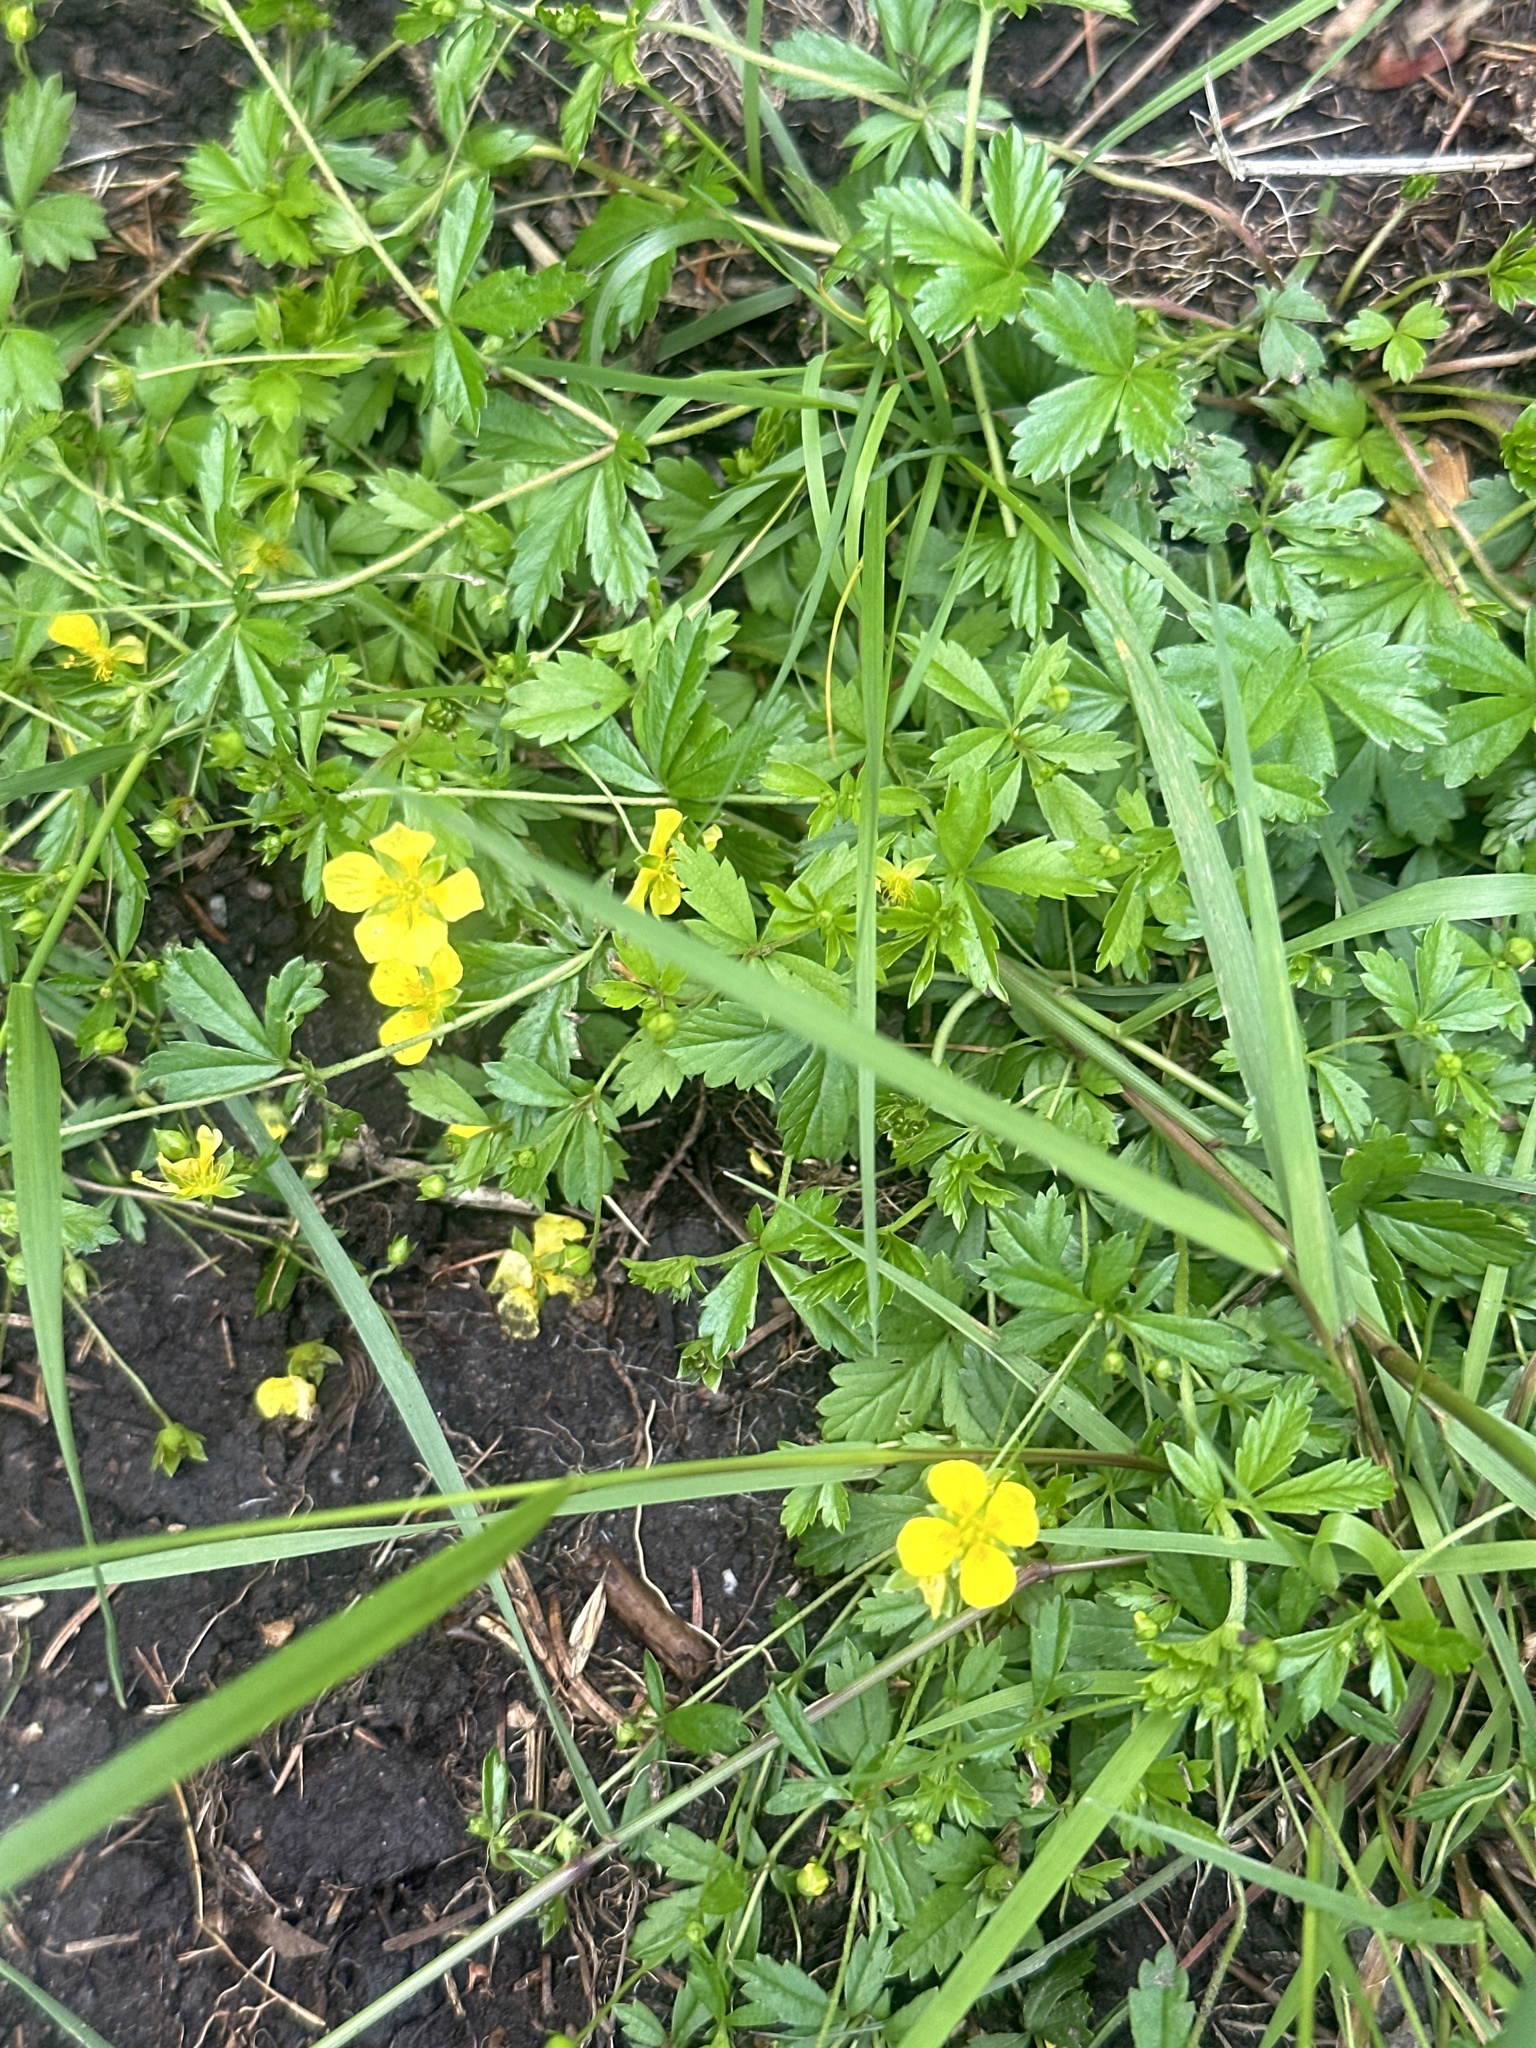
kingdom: Plantae
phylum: Tracheophyta
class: Magnoliopsida
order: Rosales
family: Rosaceae
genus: Potentilla
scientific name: Potentilla erecta
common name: Tormentil
